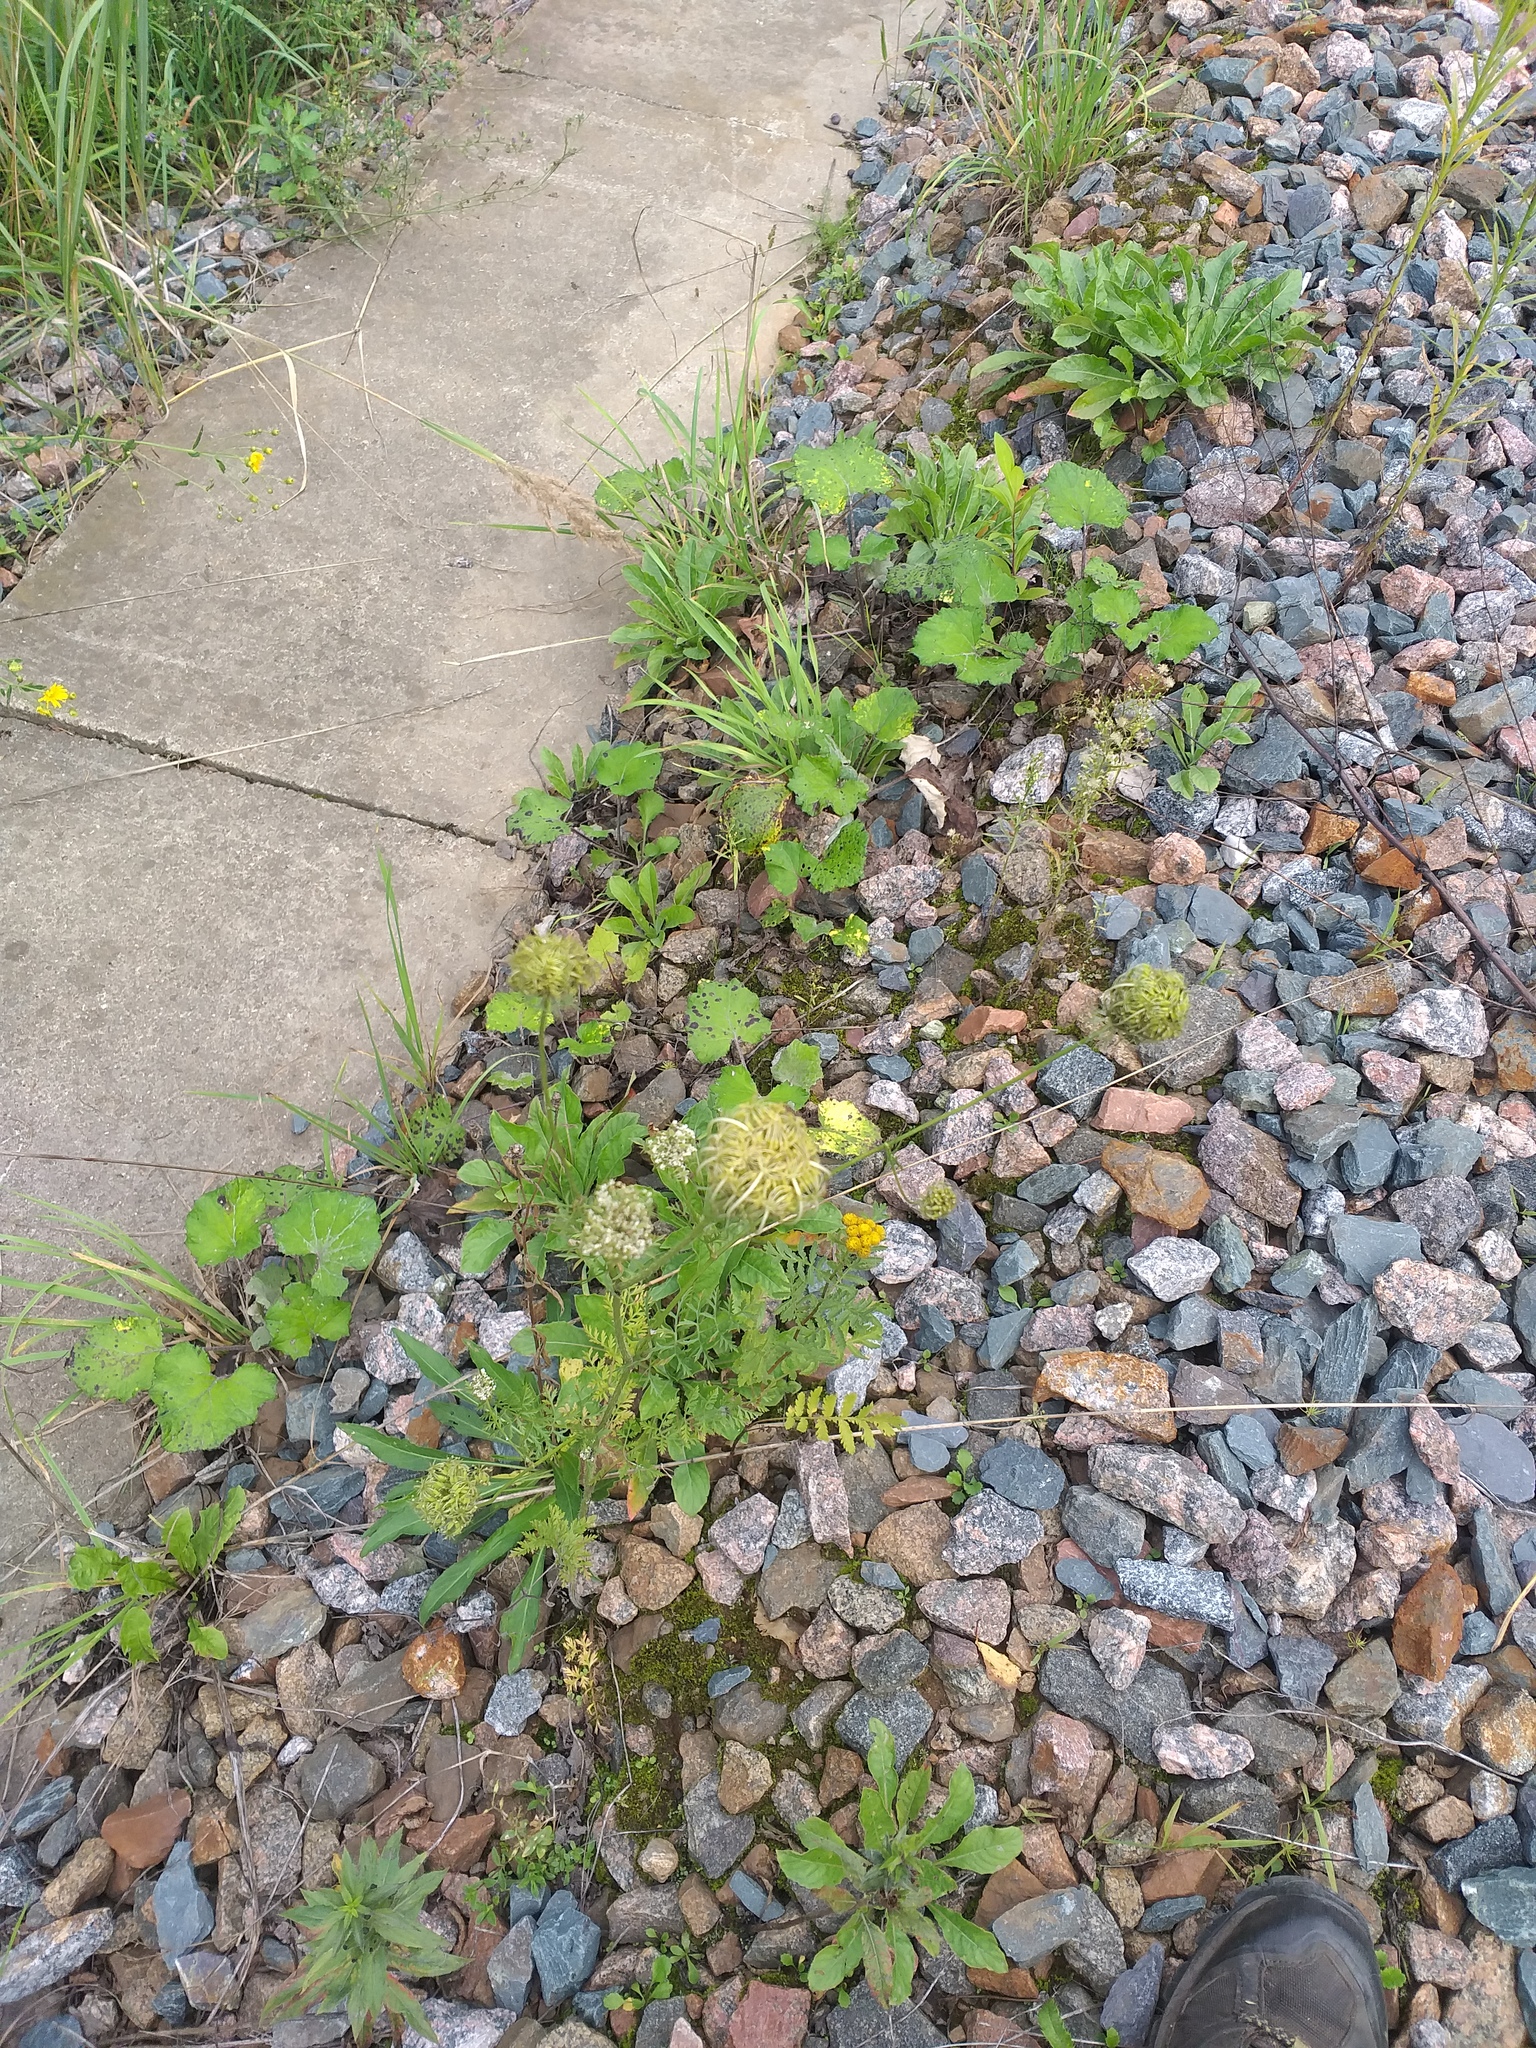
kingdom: Plantae
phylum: Tracheophyta
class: Magnoliopsida
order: Apiales
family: Apiaceae
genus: Daucus
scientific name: Daucus carota
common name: Wild carrot
